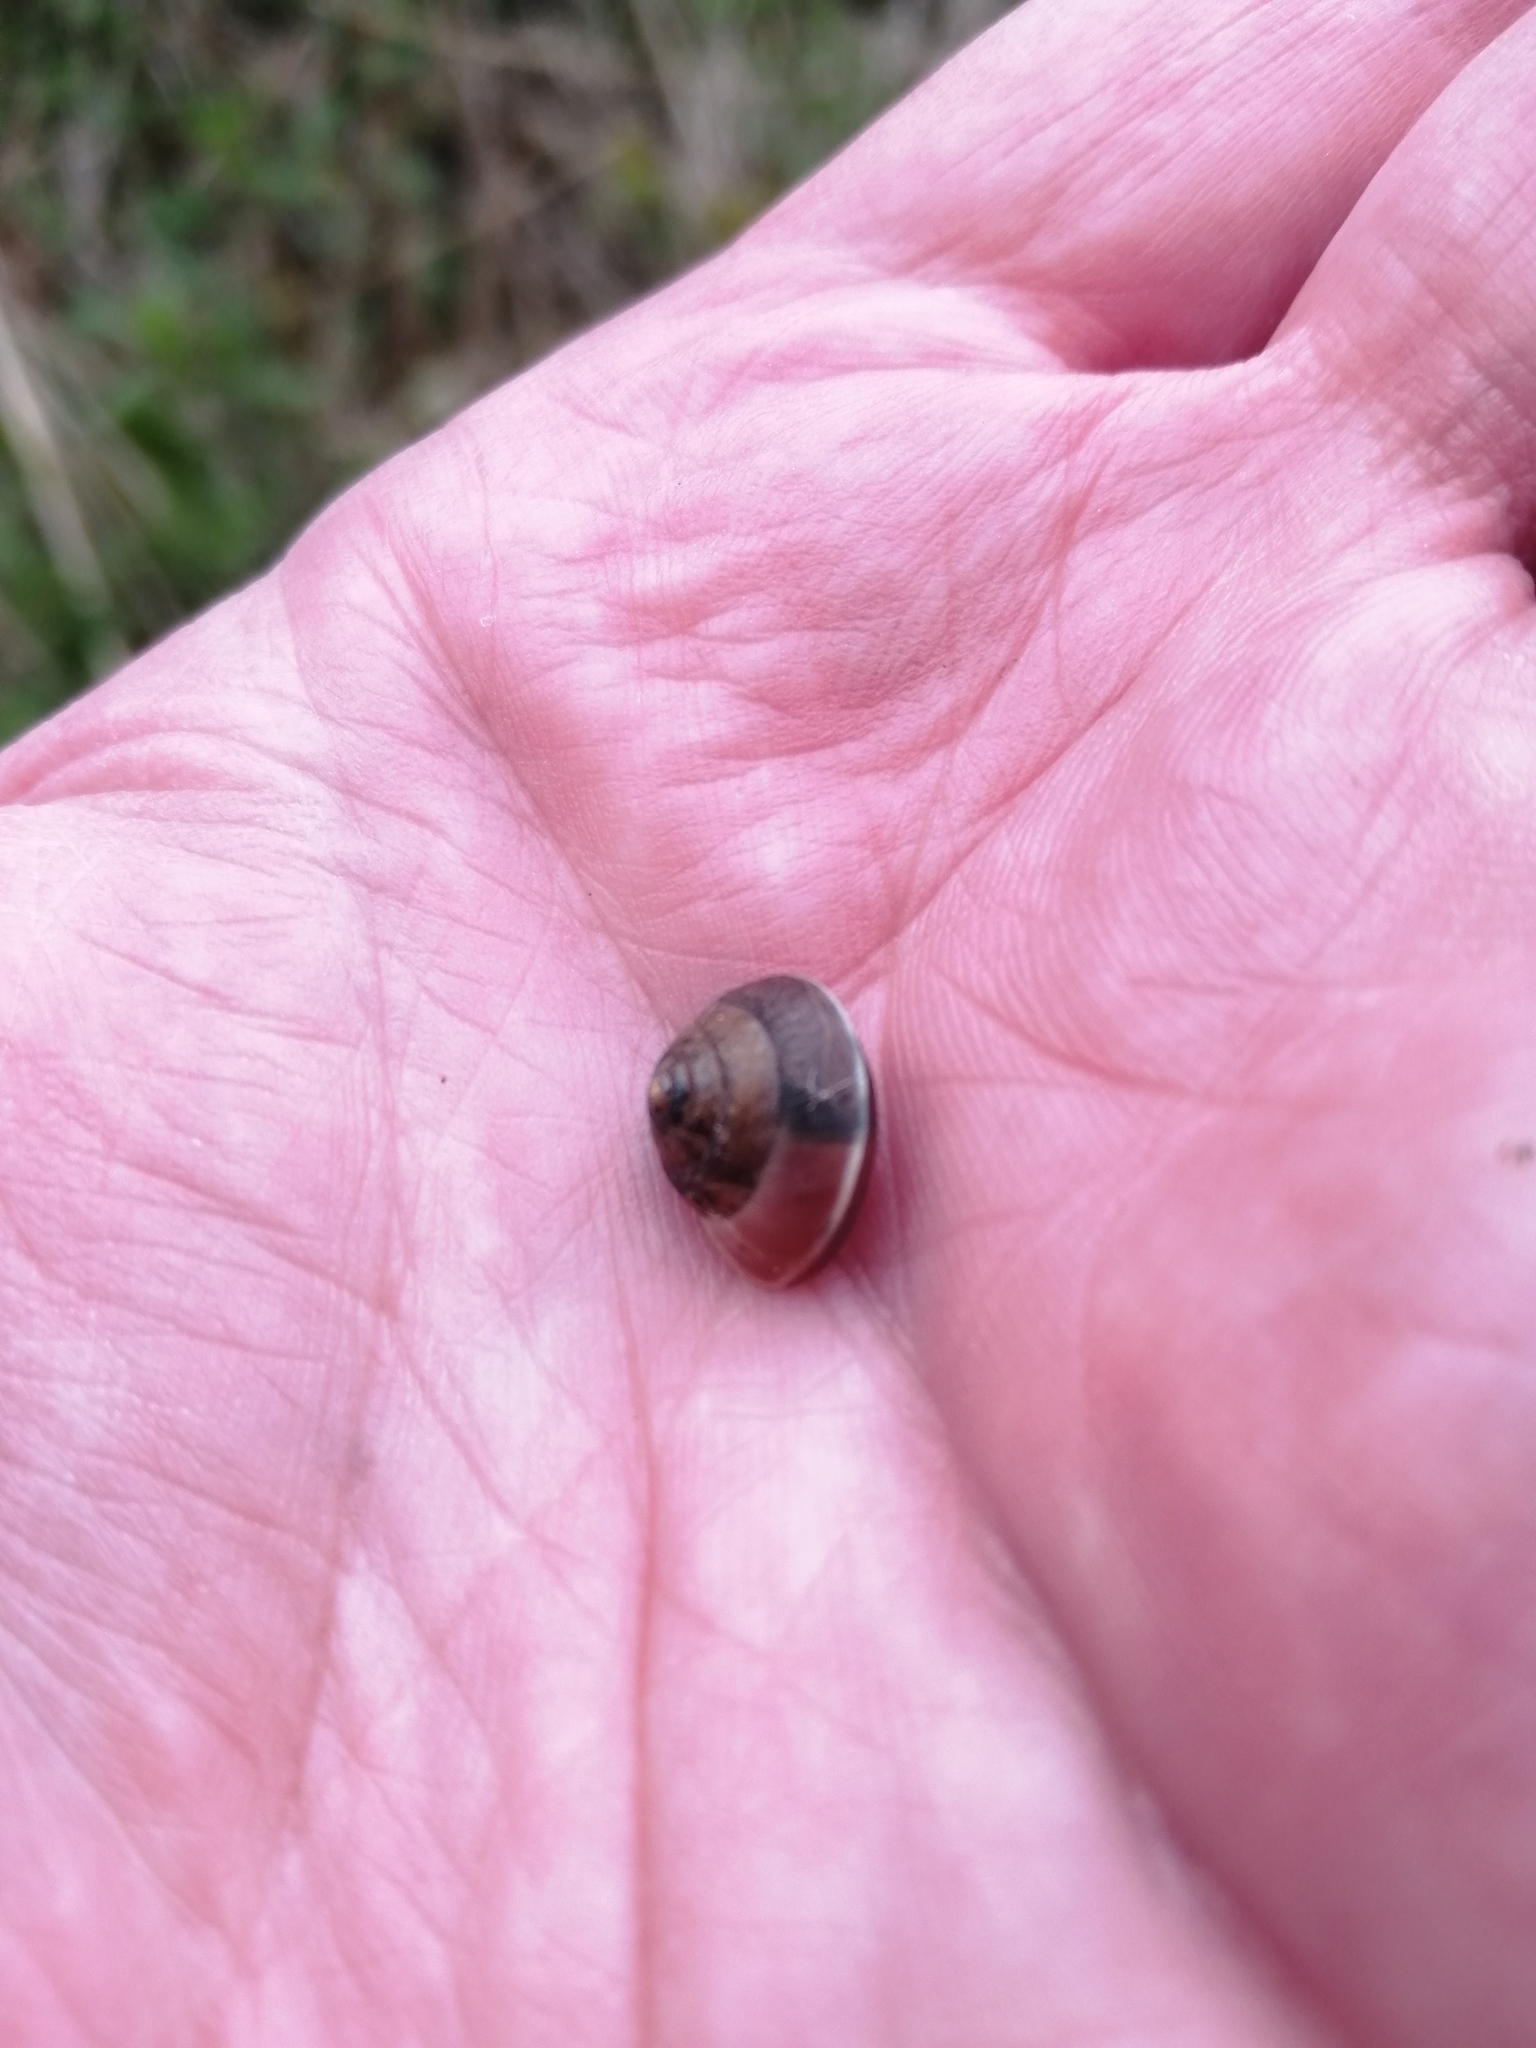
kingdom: Animalia
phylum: Mollusca
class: Gastropoda
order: Stylommatophora
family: Hygromiidae
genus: Hygromia
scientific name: Hygromia cinctella
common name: Girdled snail
